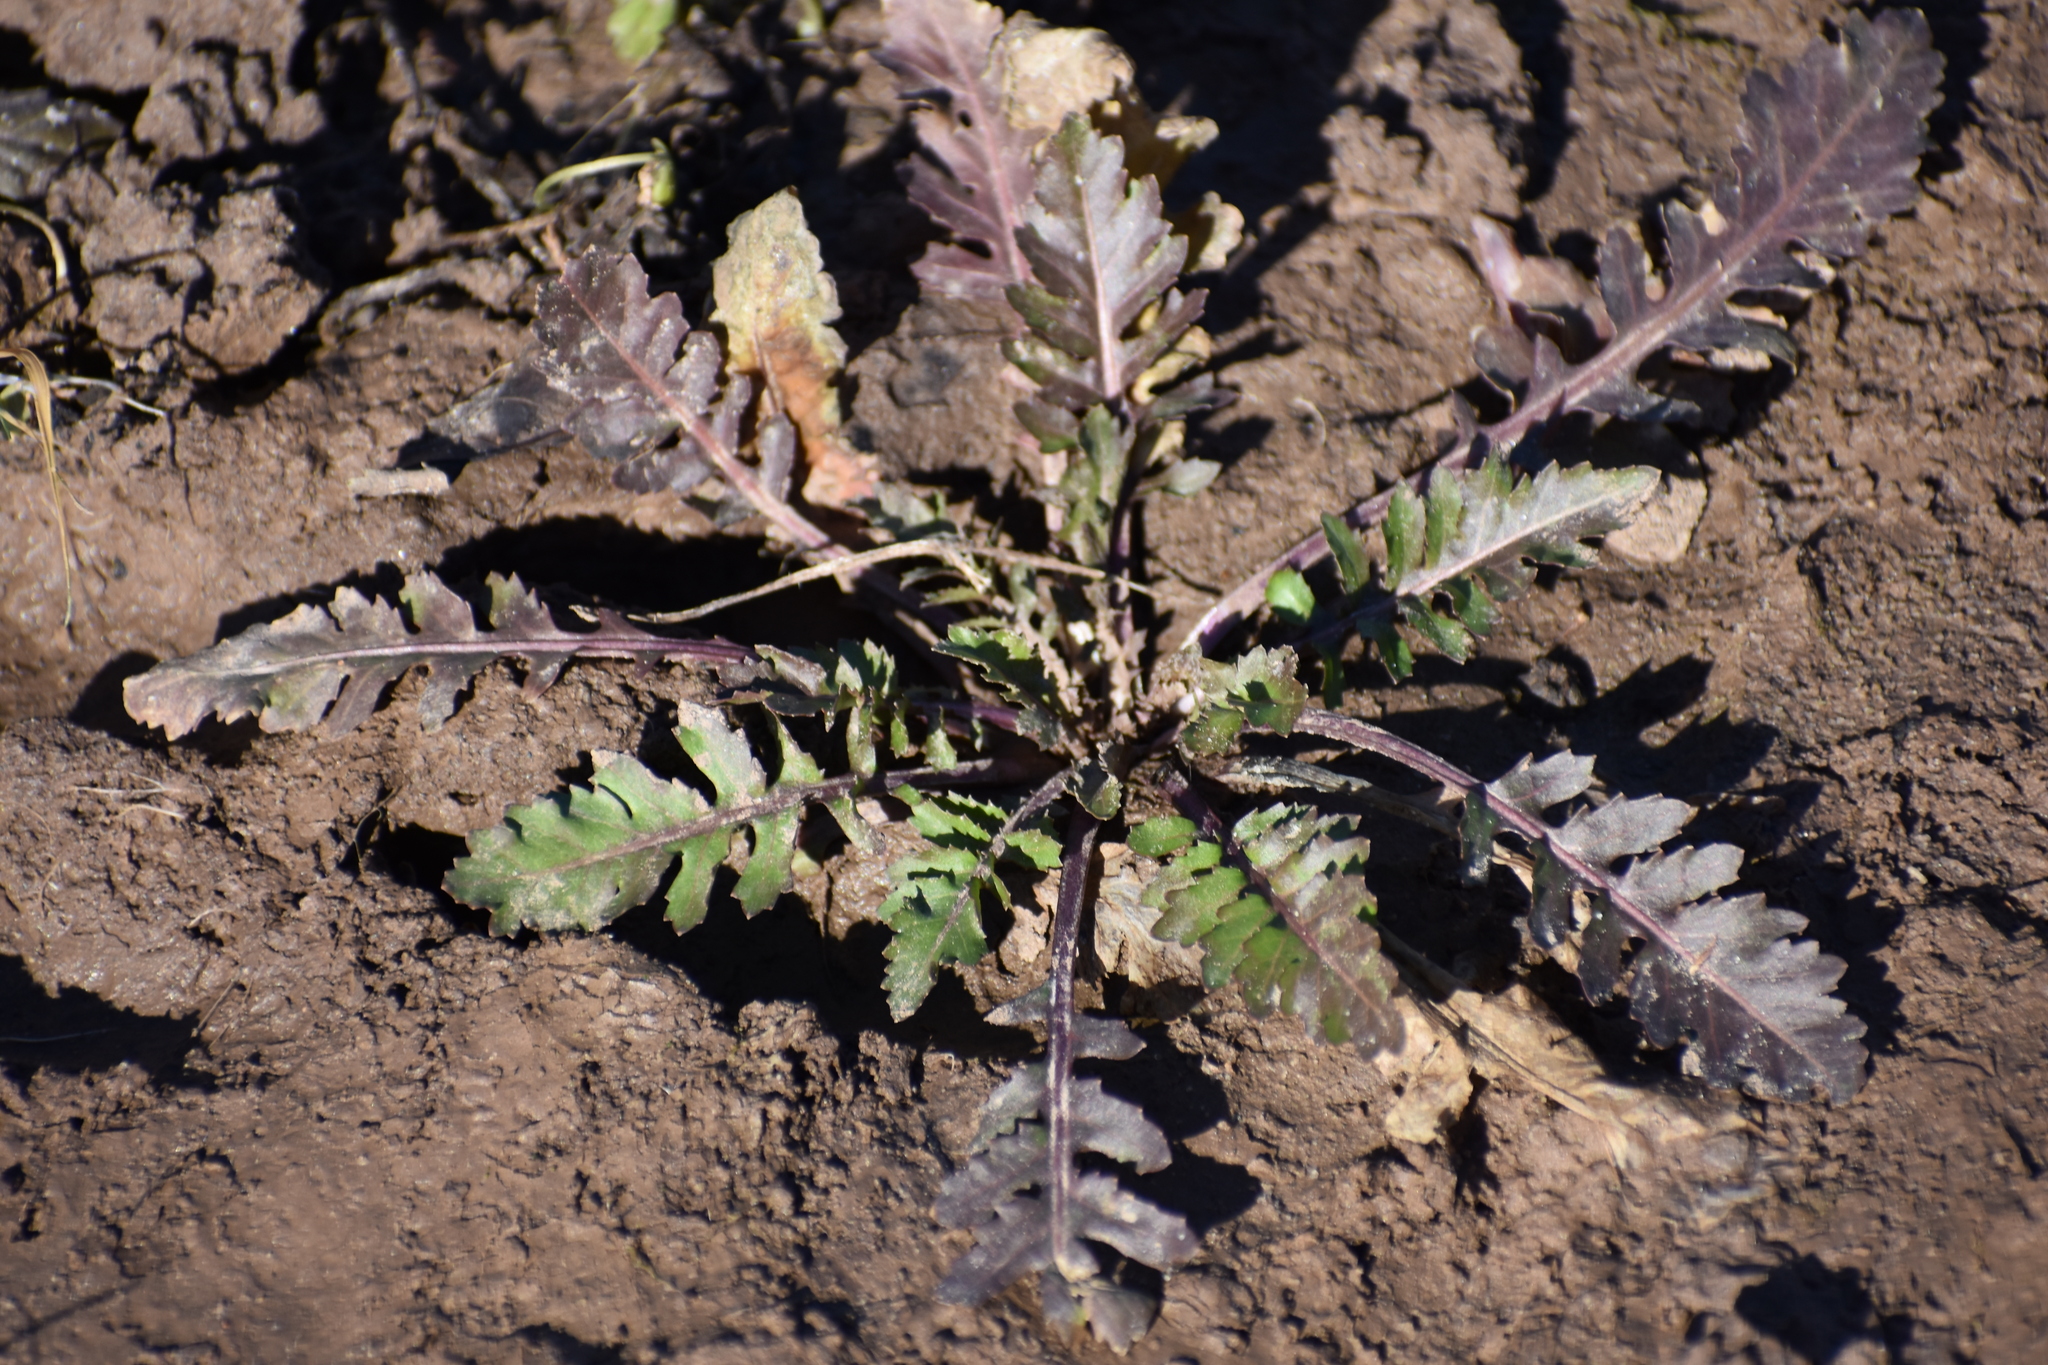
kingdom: Plantae
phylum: Tracheophyta
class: Magnoliopsida
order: Brassicales
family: Brassicaceae
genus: Rorippa
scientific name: Rorippa palustris
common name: Marsh yellow-cress
